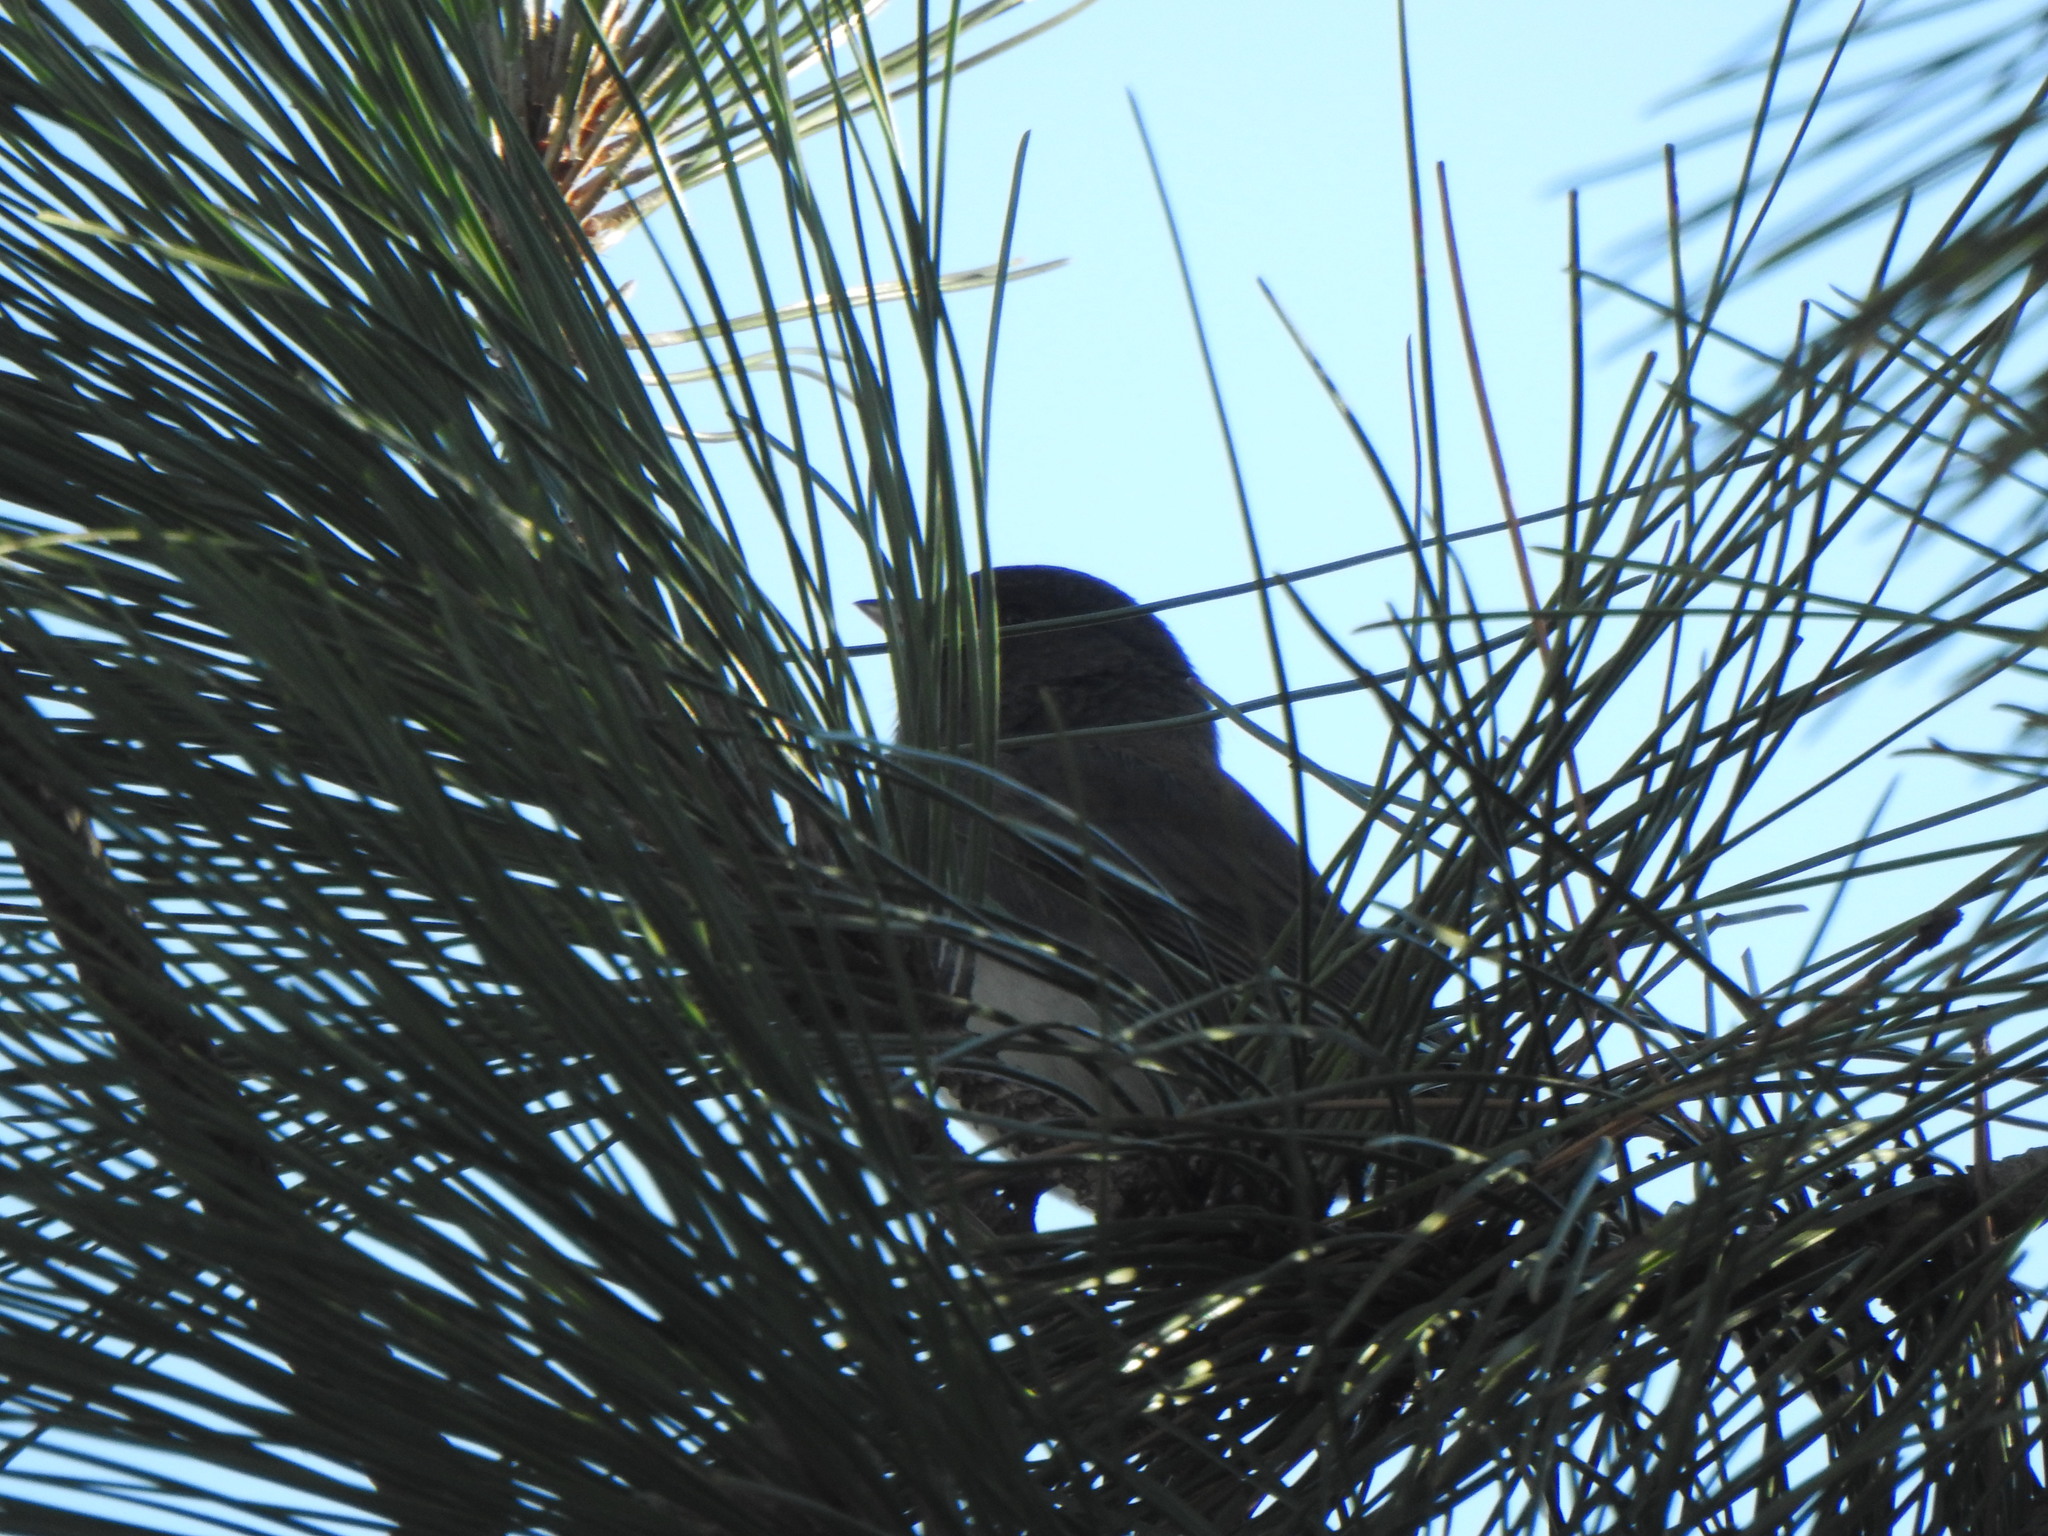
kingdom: Animalia
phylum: Chordata
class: Aves
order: Passeriformes
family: Passerellidae
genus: Junco
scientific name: Junco hyemalis
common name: Dark-eyed junco
